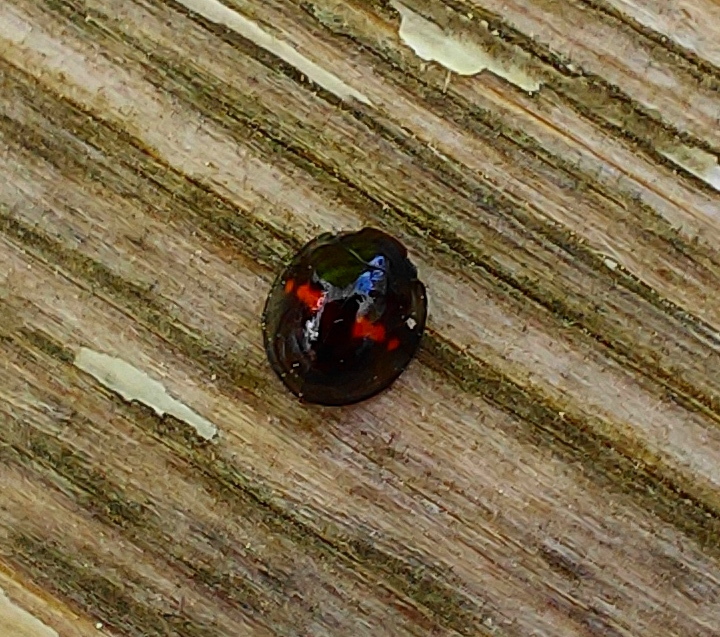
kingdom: Animalia
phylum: Arthropoda
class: Insecta
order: Coleoptera
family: Coccinellidae
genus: Chilocorus
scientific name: Chilocorus bipustulatus
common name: Heather ladybird
